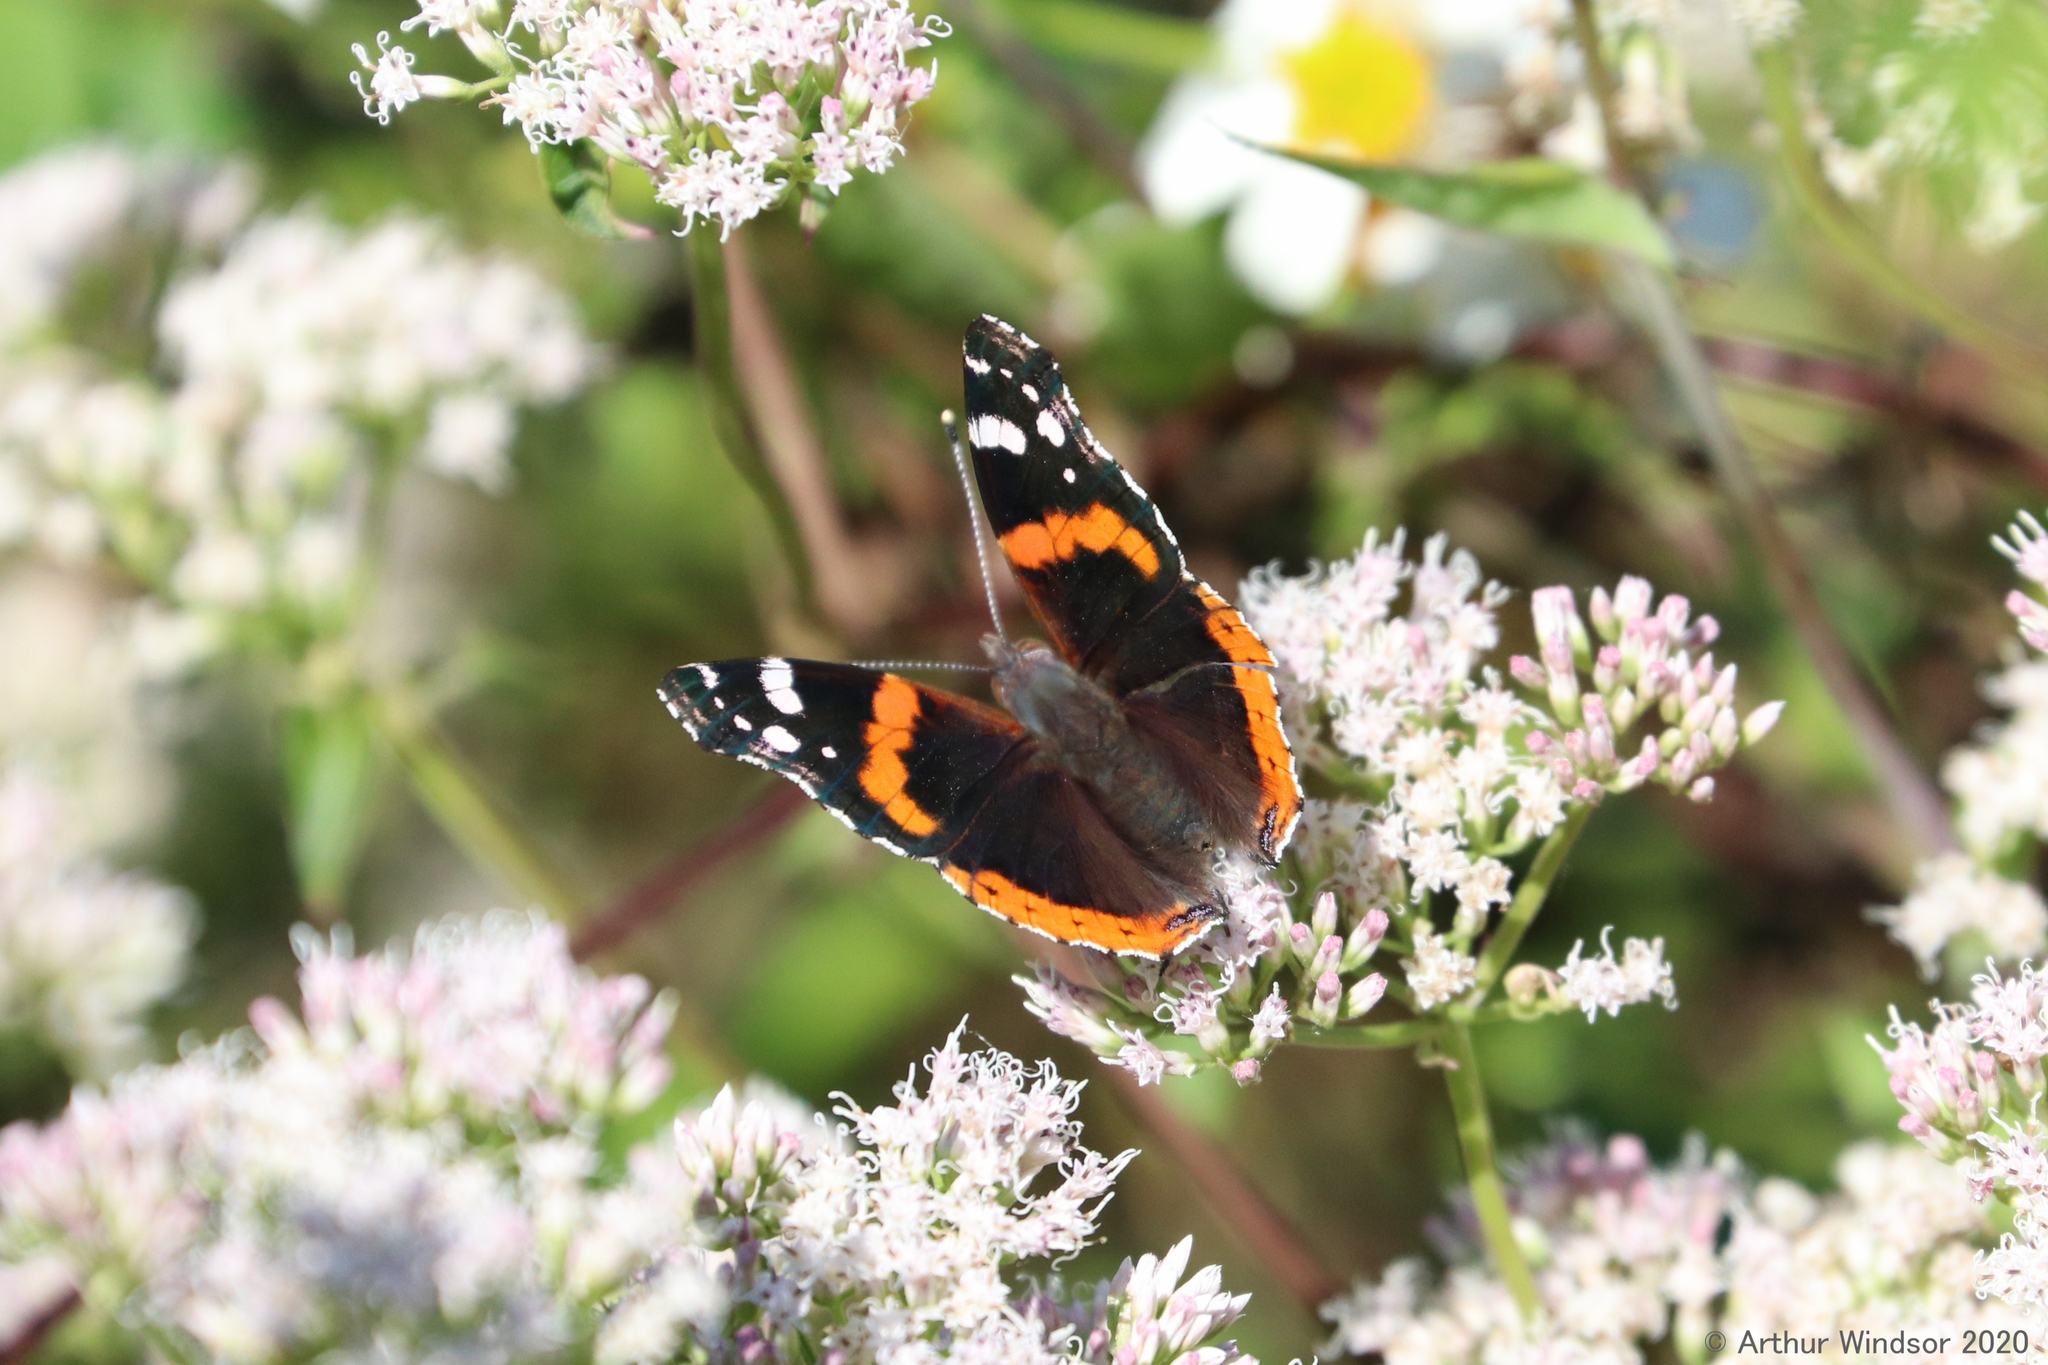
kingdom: Animalia
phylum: Arthropoda
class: Insecta
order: Lepidoptera
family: Nymphalidae
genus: Vanessa
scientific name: Vanessa atalanta
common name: Red admiral
